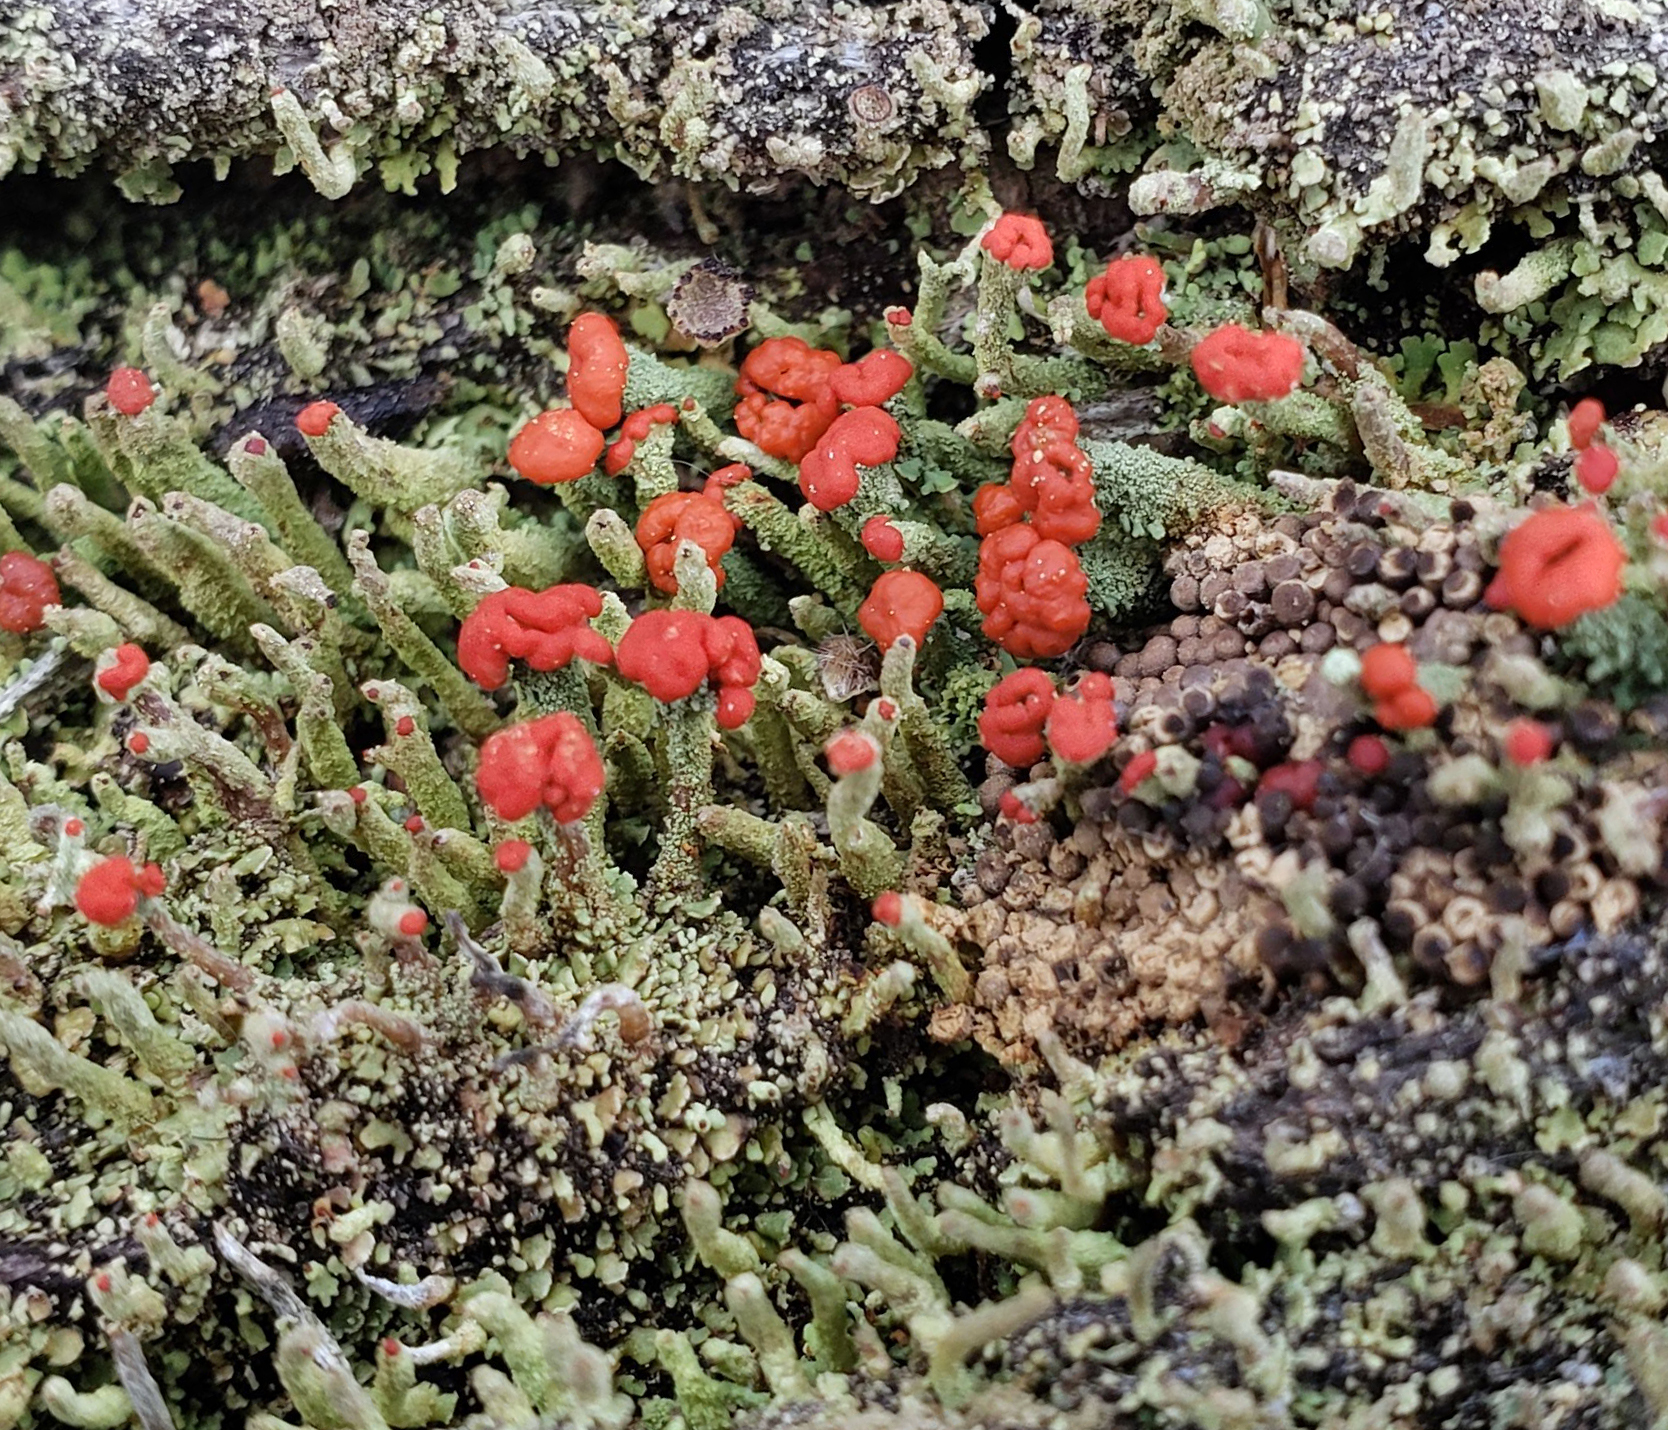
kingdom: Fungi
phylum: Ascomycota
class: Lecanoromycetes
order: Lecanorales
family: Cladoniaceae
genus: Cladonia
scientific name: Cladonia cristatella
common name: British soldier lichen
